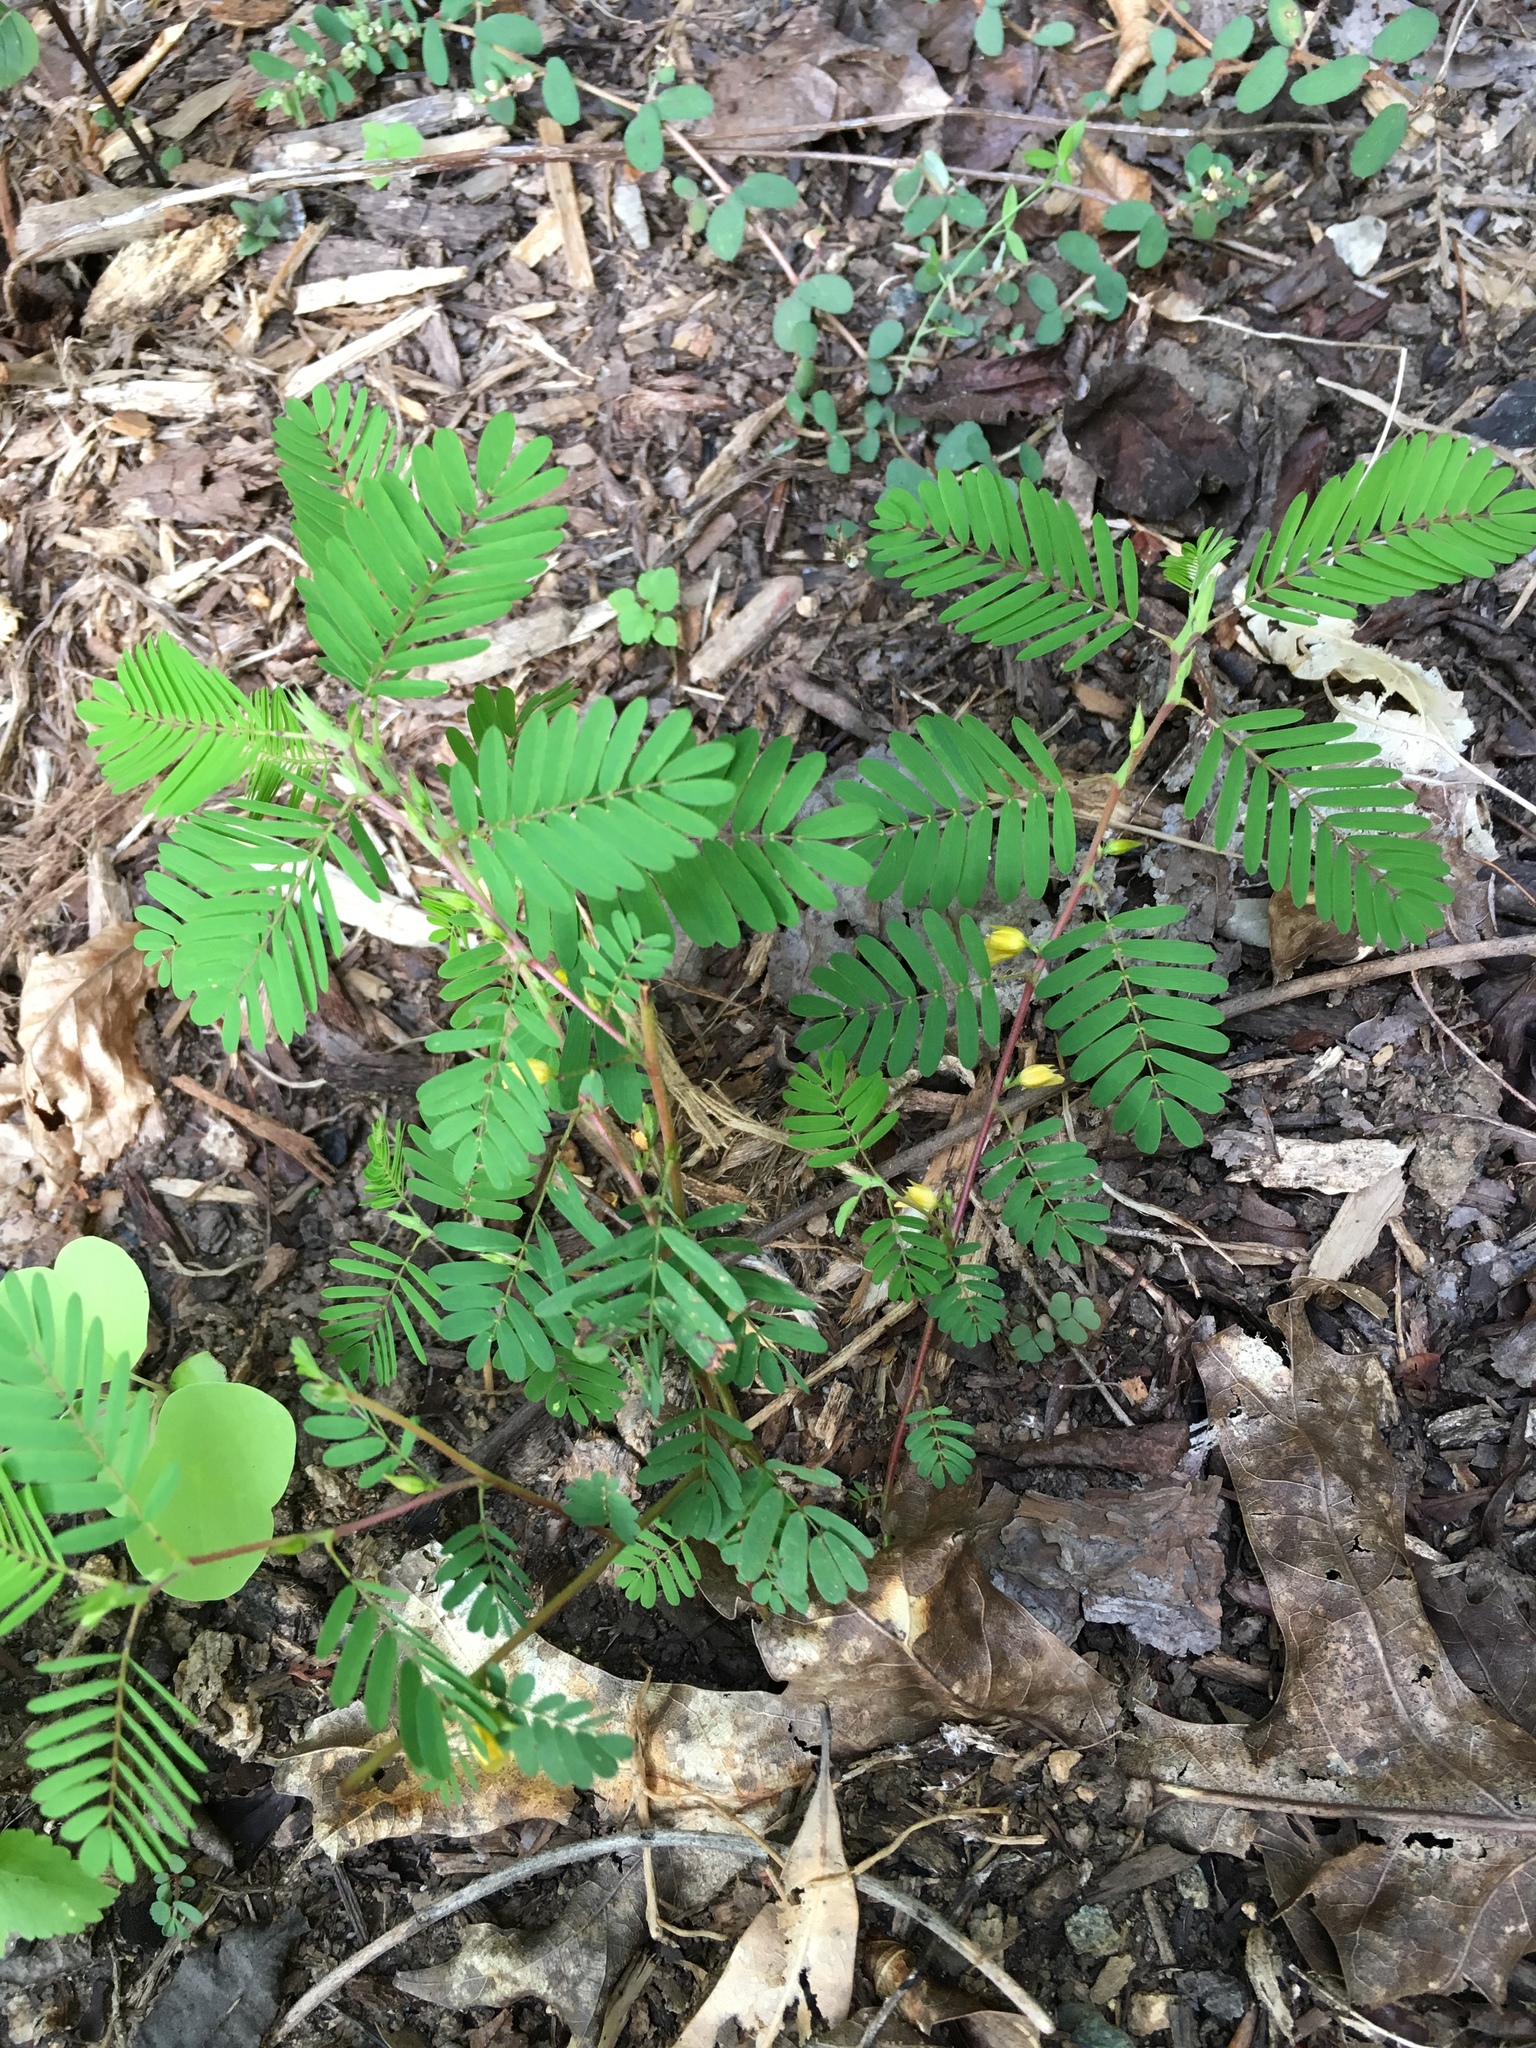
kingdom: Plantae
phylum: Tracheophyta
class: Magnoliopsida
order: Fabales
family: Fabaceae
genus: Chamaecrista
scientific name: Chamaecrista fasciculata
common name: Golden cassia
